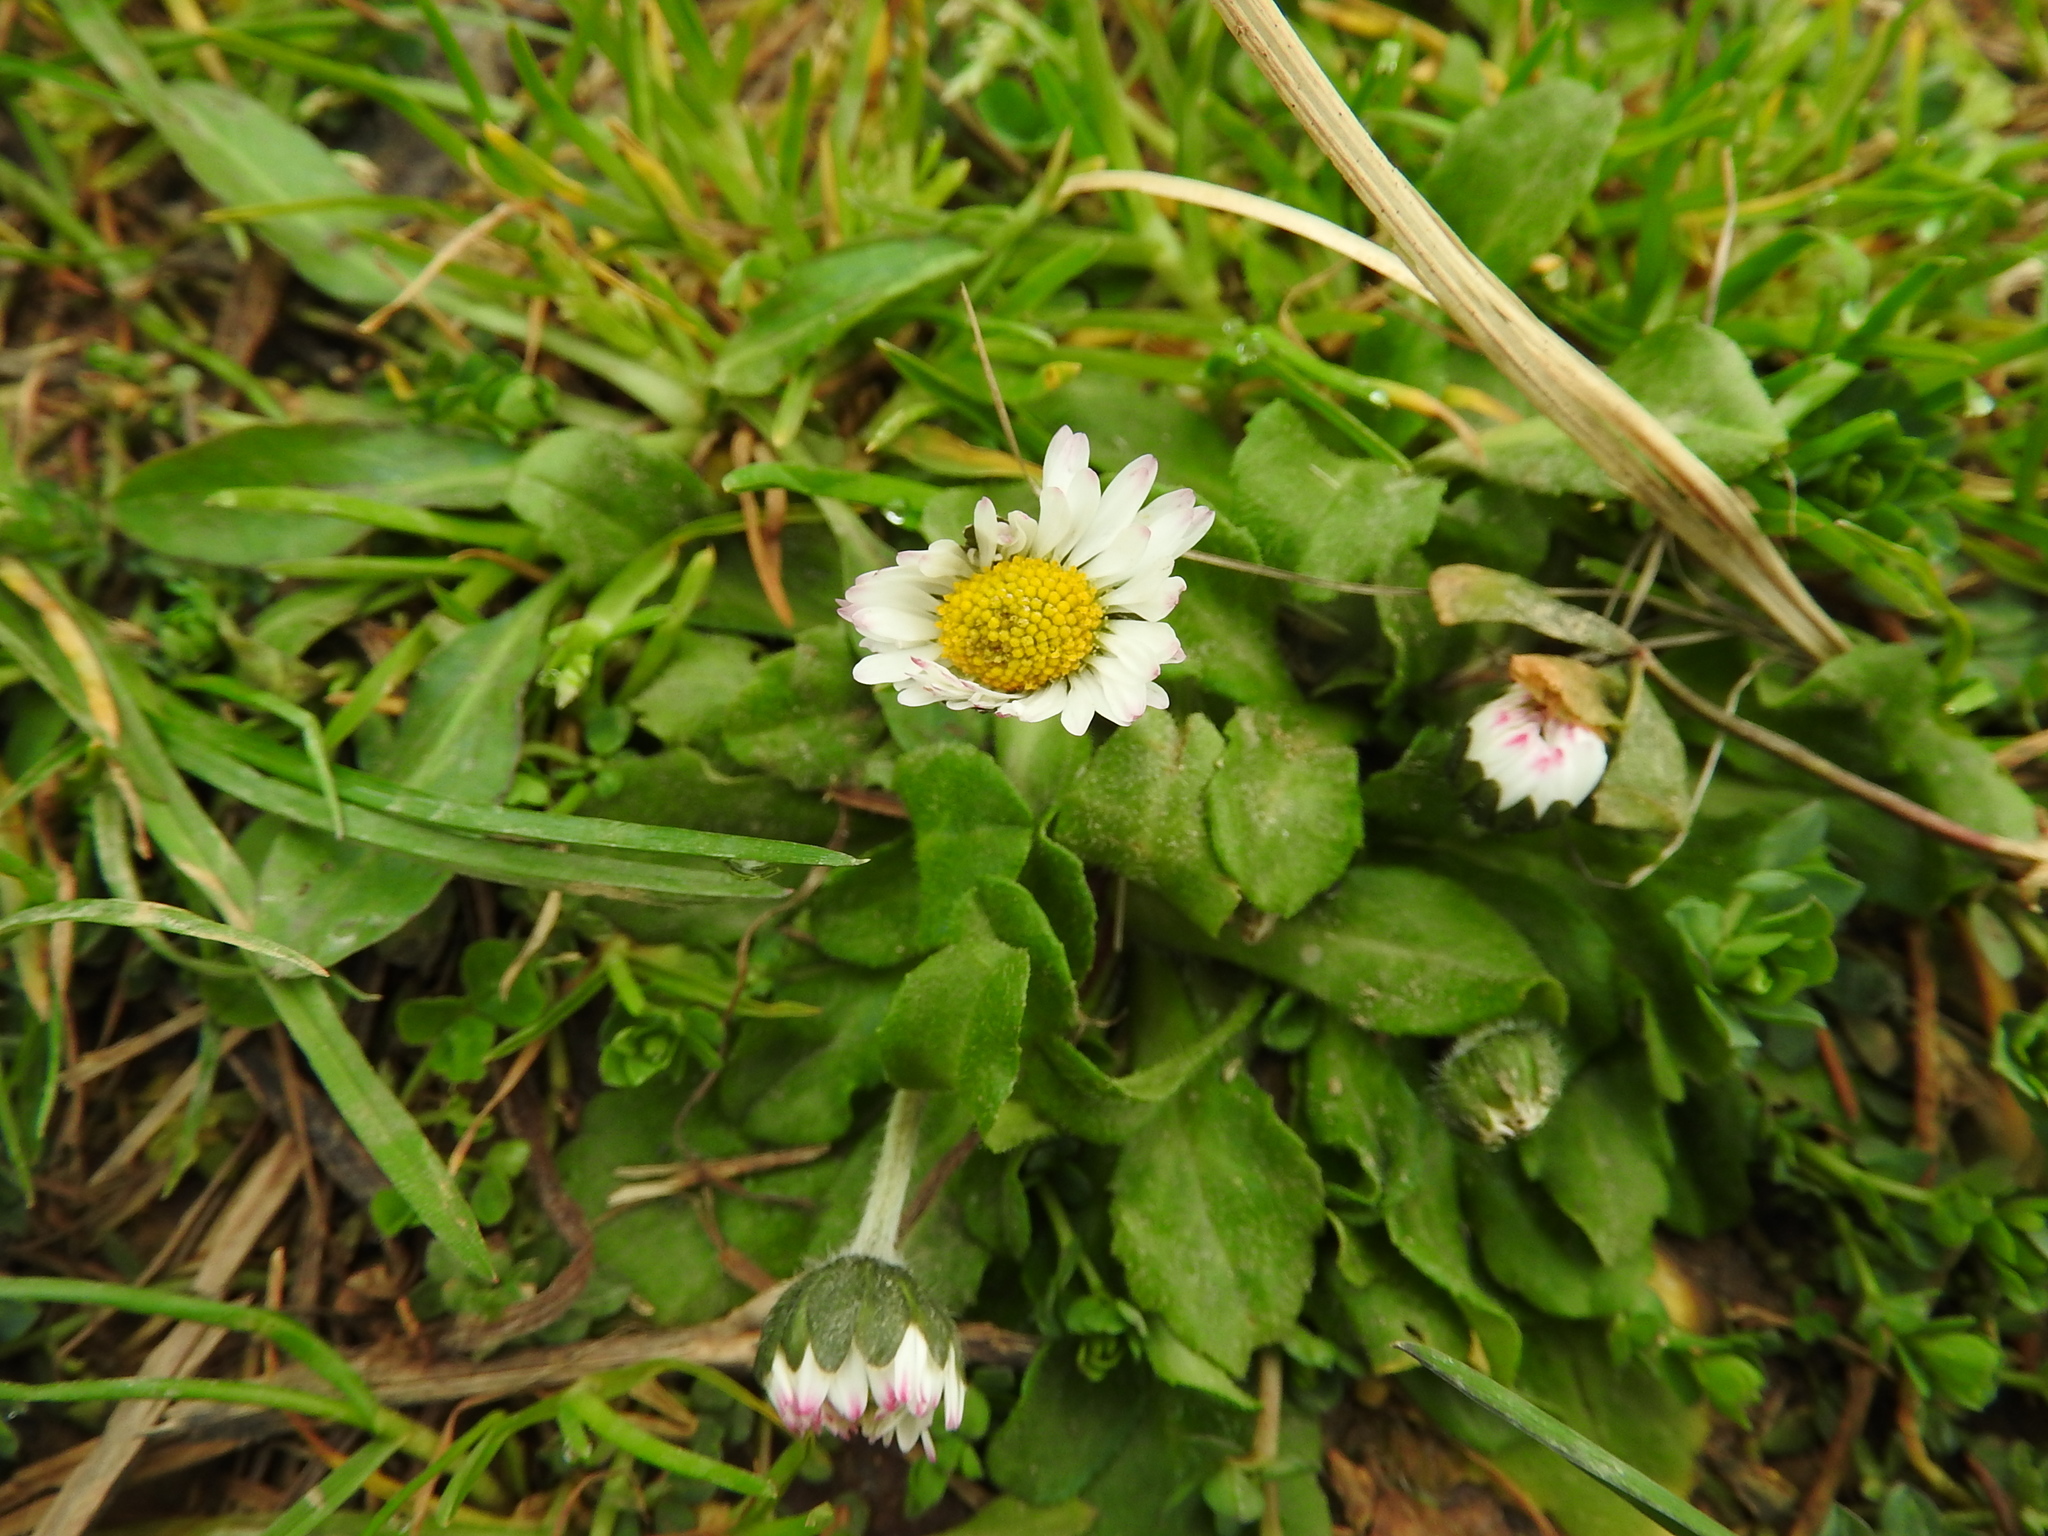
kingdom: Plantae
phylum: Tracheophyta
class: Magnoliopsida
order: Asterales
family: Asteraceae
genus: Bellis
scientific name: Bellis perennis
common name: Lawndaisy
